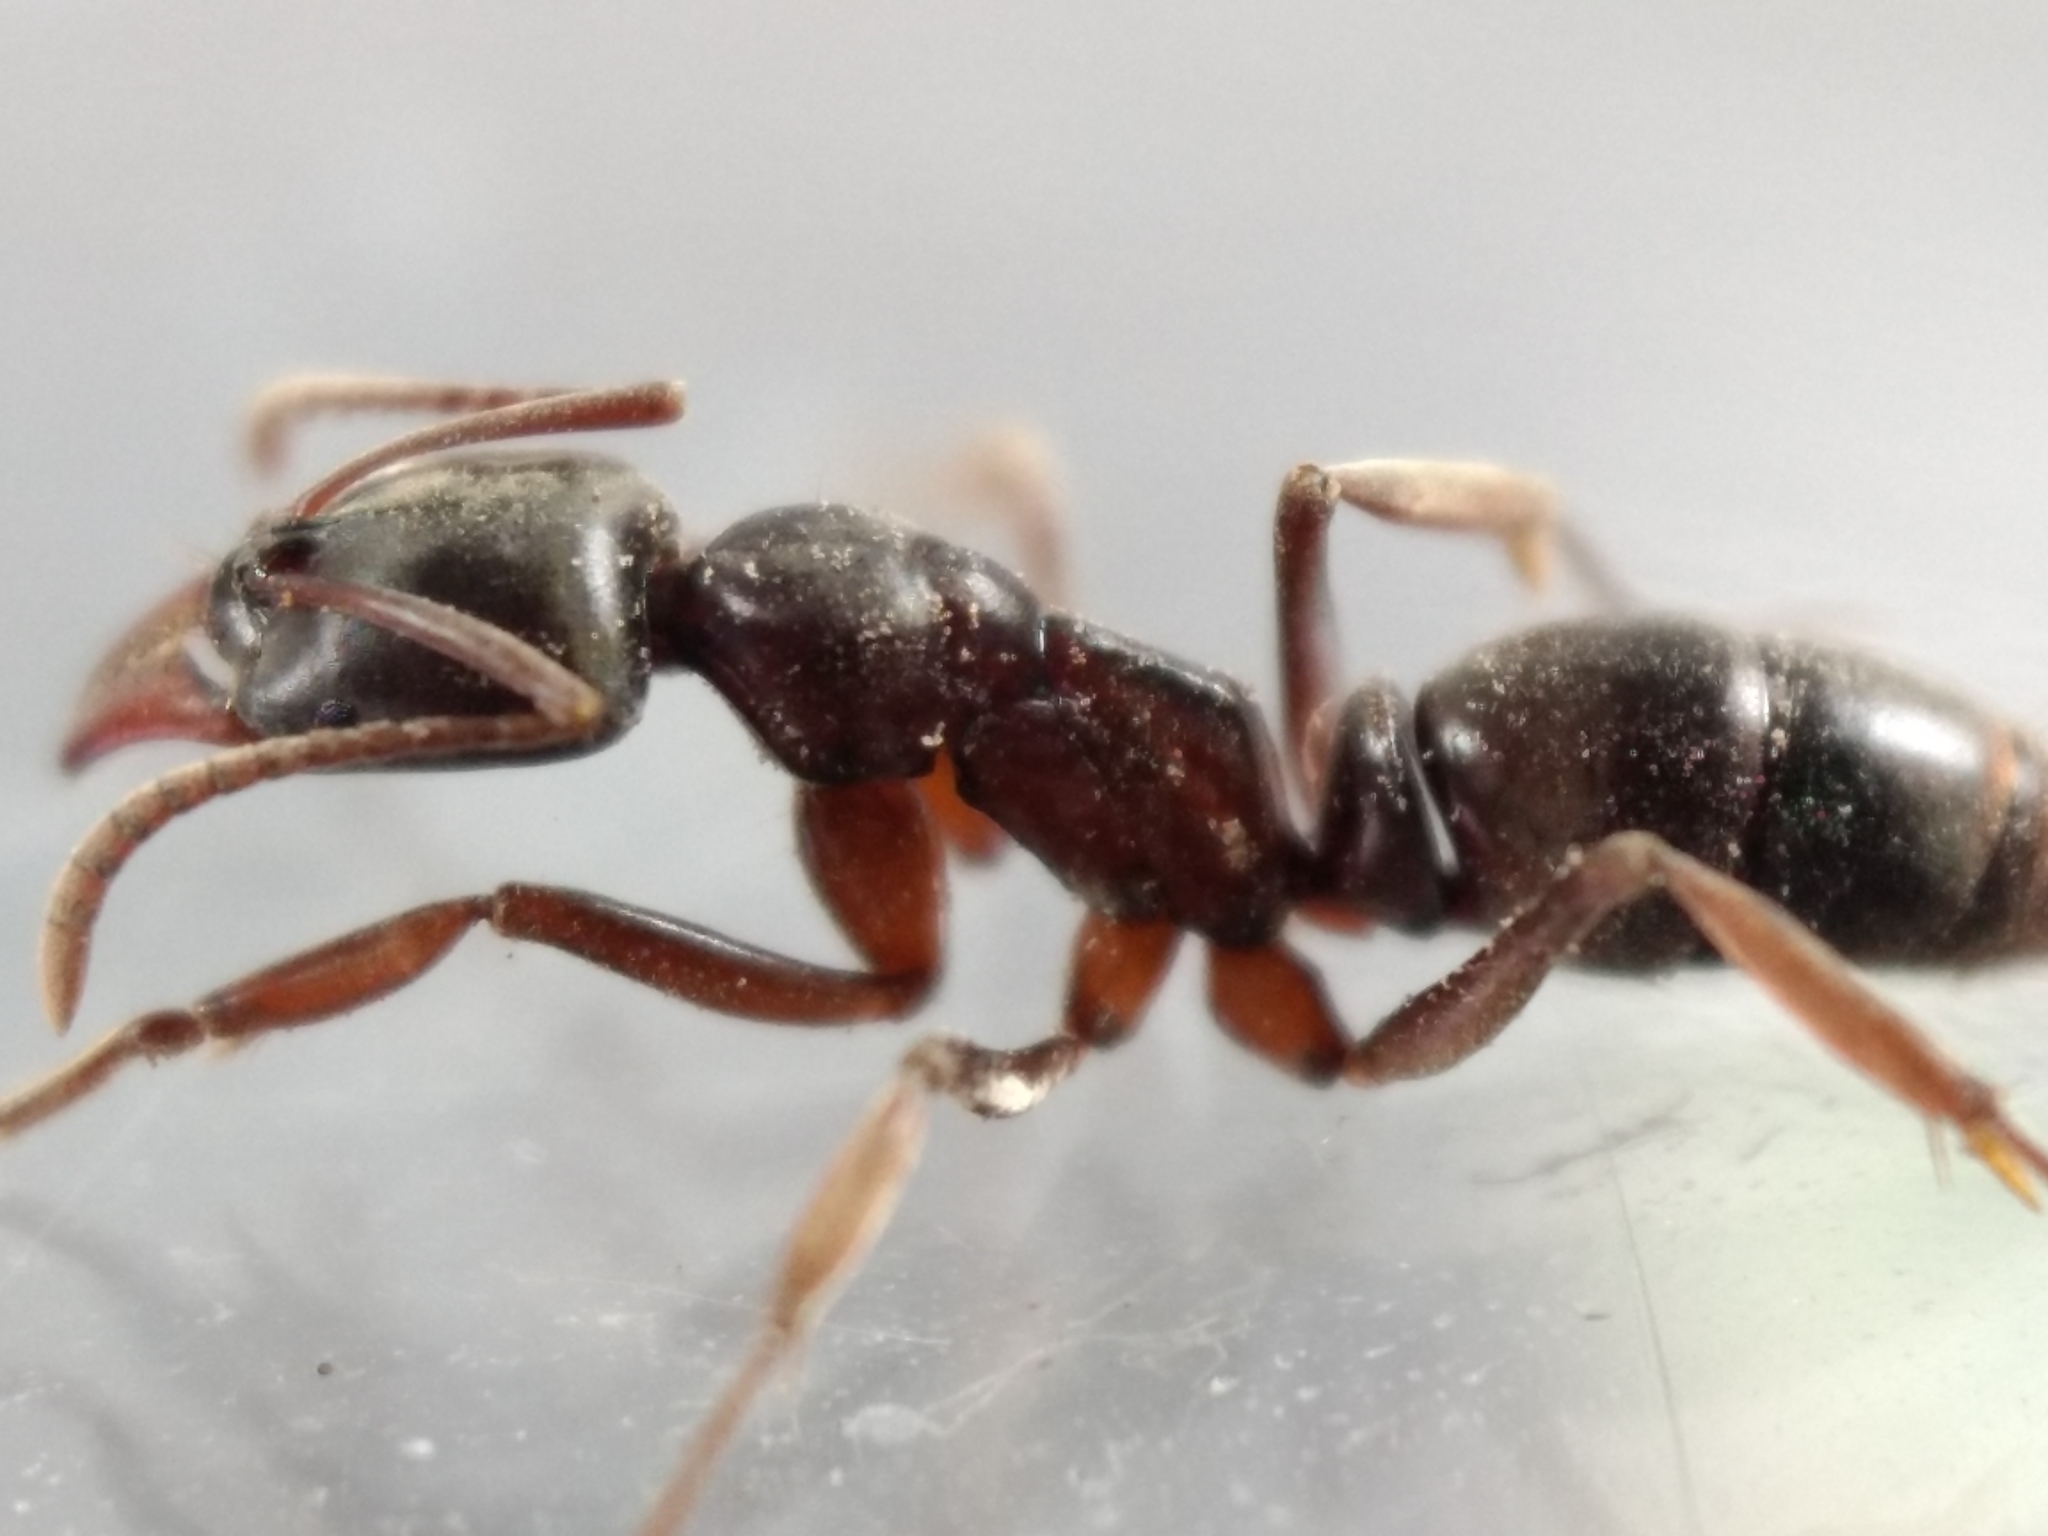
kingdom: Animalia
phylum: Arthropoda
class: Insecta
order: Hymenoptera
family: Formicidae
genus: Mesoponera
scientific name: Mesoponera
